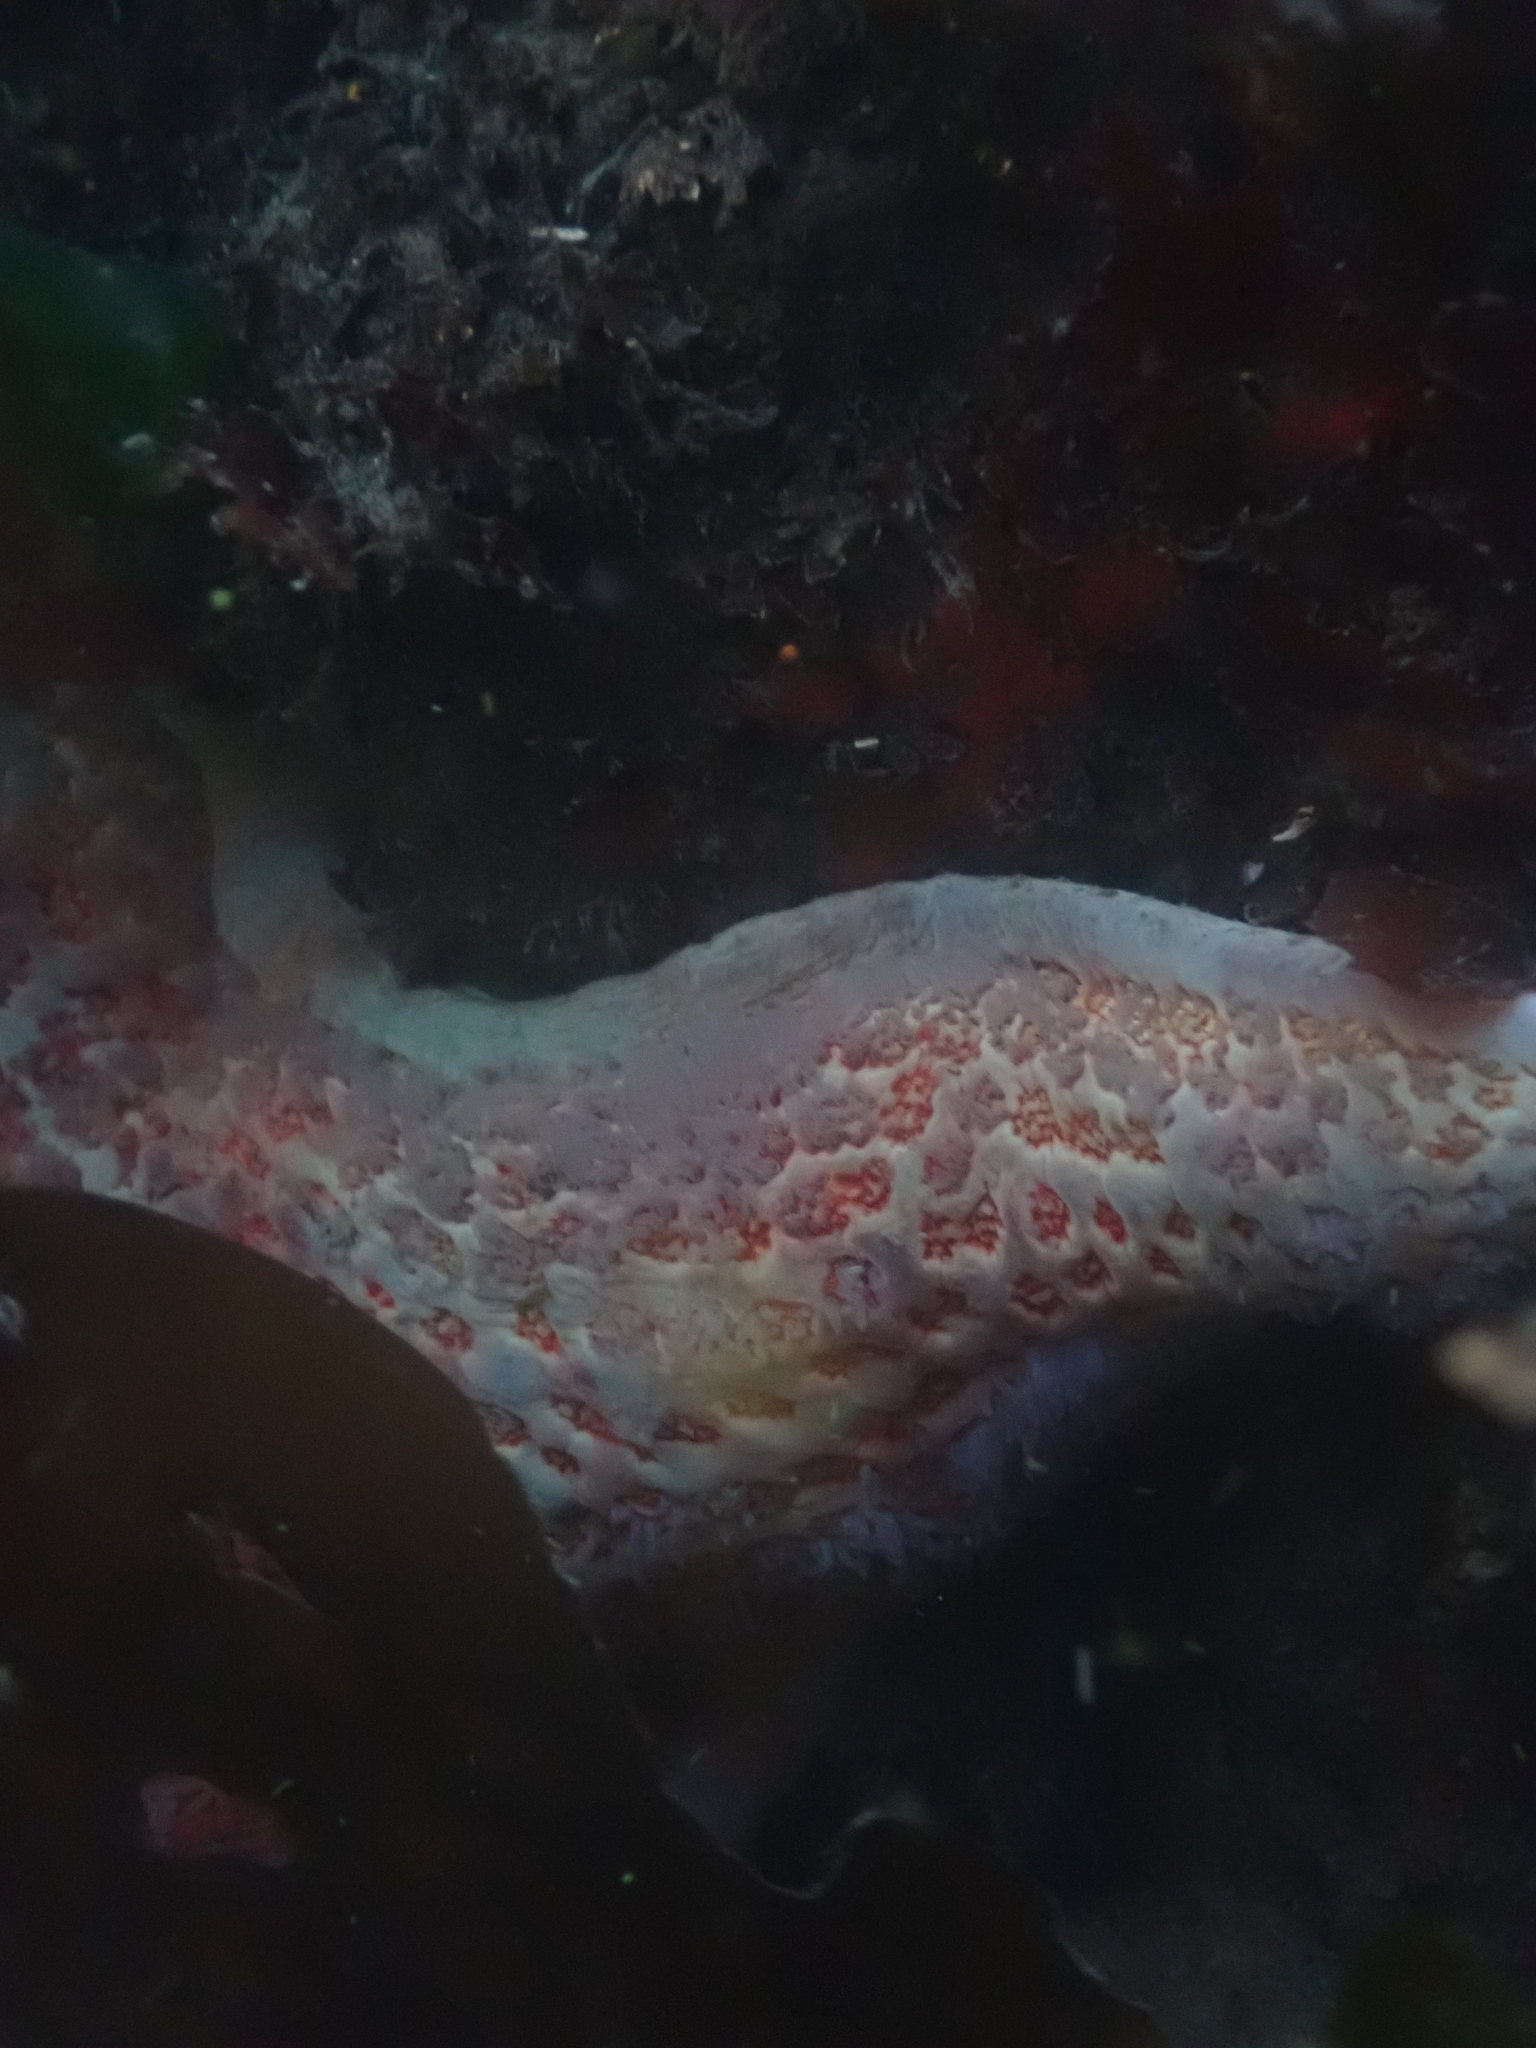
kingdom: Animalia
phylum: Echinodermata
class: Asteroidea
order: Valvatida
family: Asteropseidae
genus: Dermasterias
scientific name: Dermasterias imbricata
